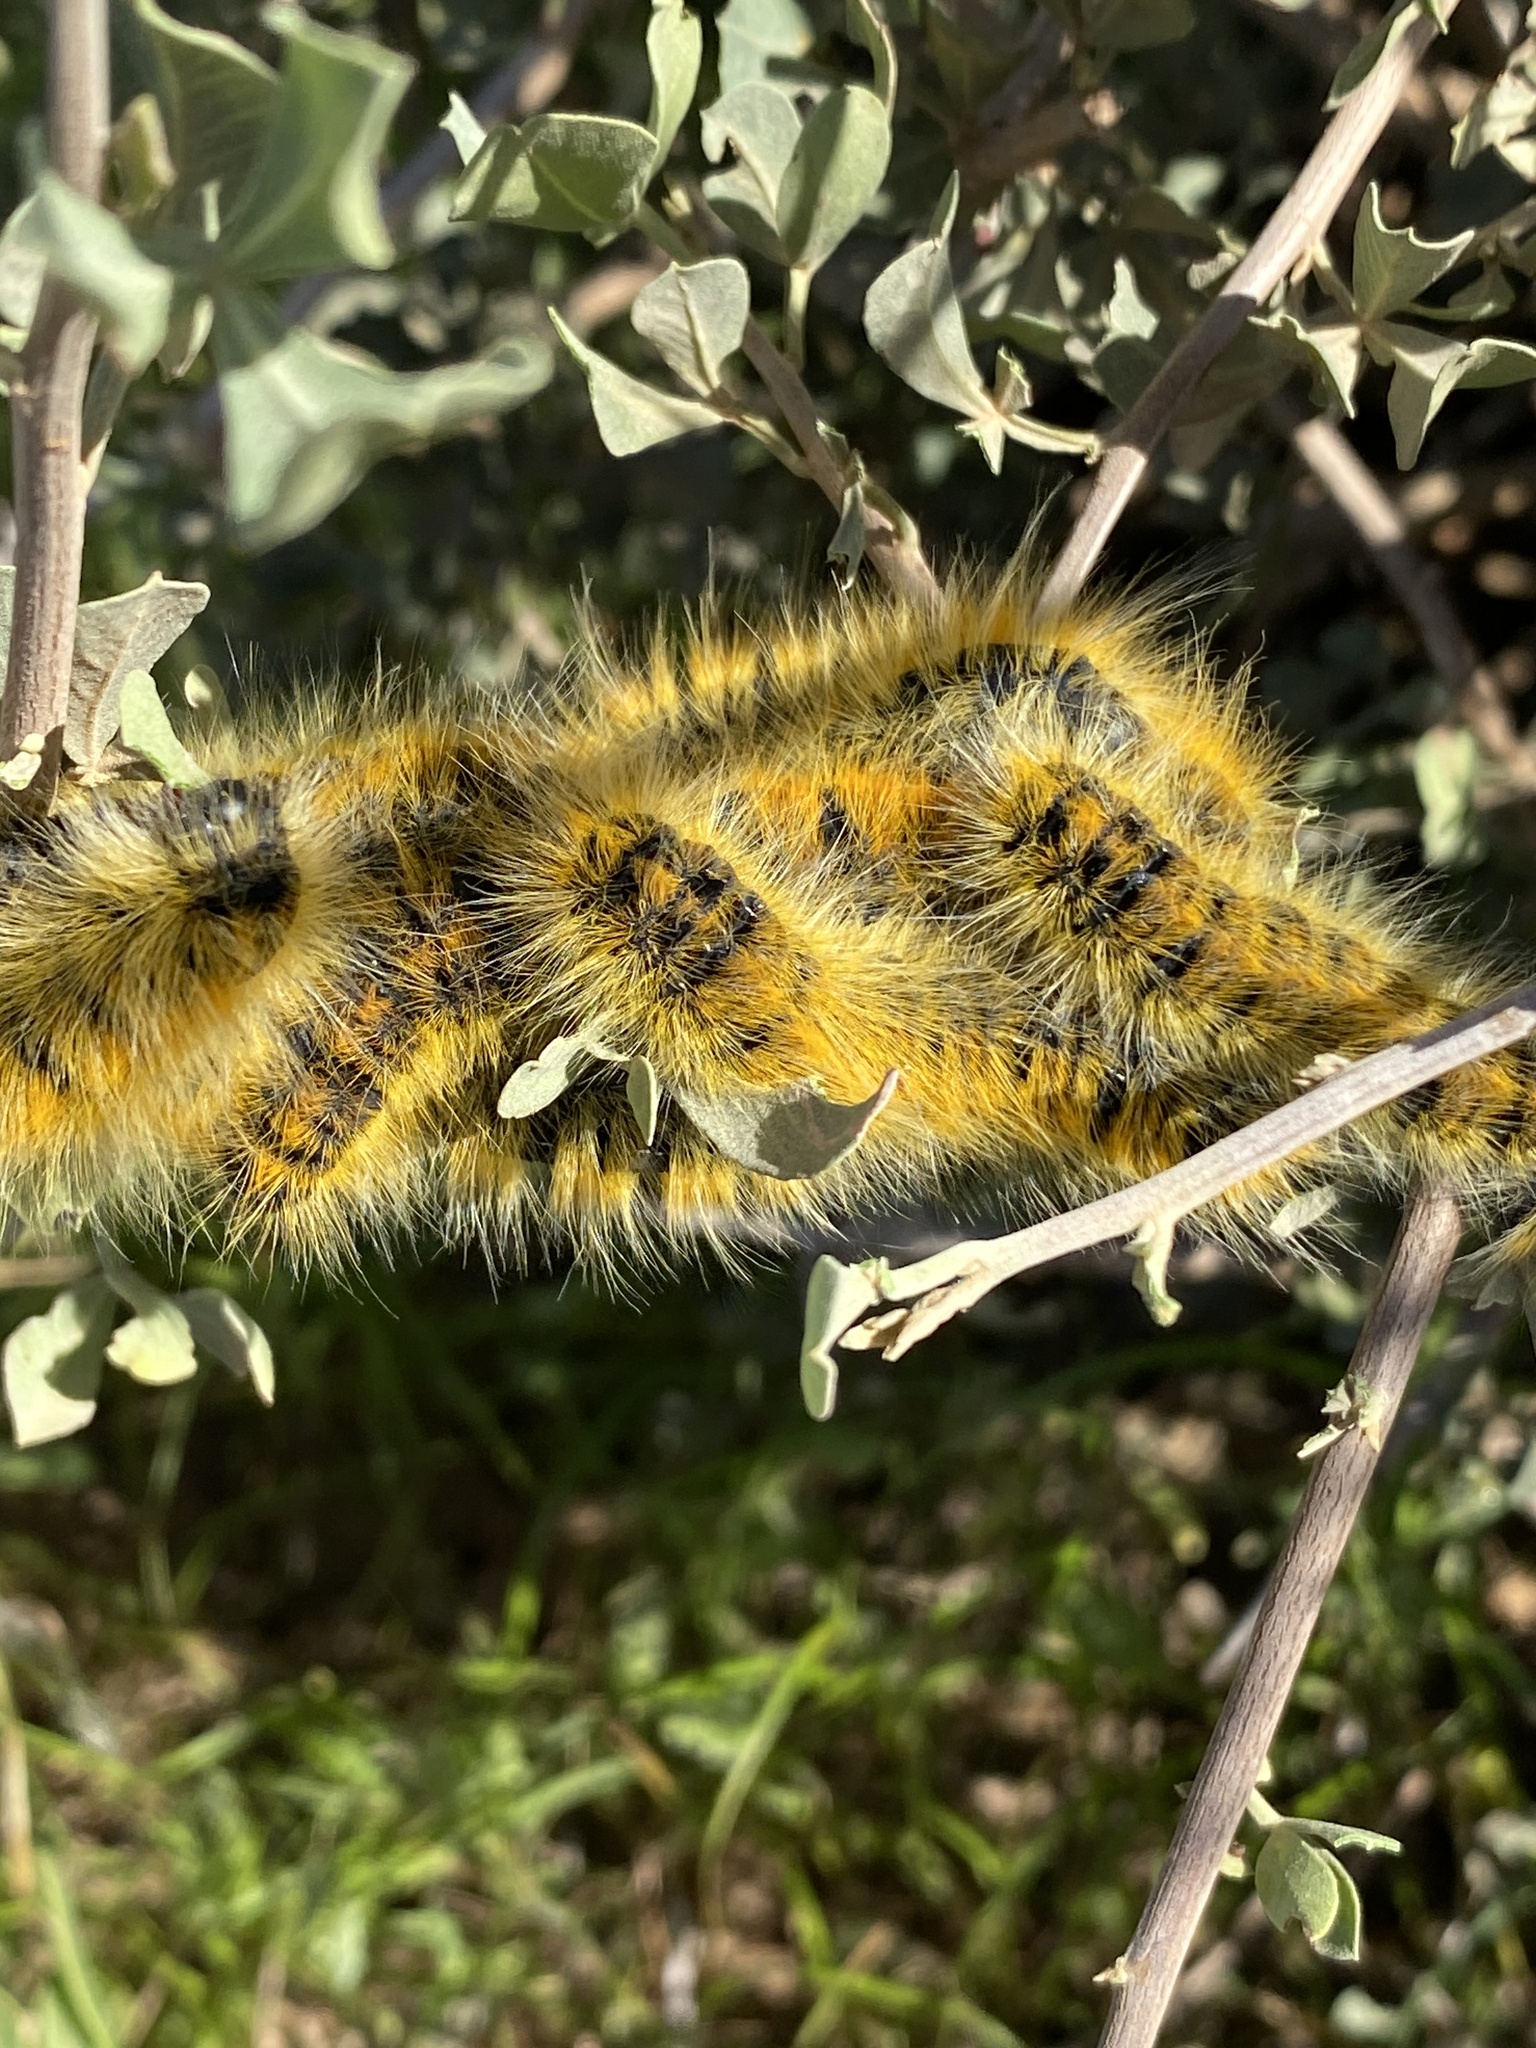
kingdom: Animalia
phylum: Arthropoda
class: Insecta
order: Lepidoptera
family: Lasiocampidae
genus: Bombycomorpha
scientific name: Bombycomorpha dukei
